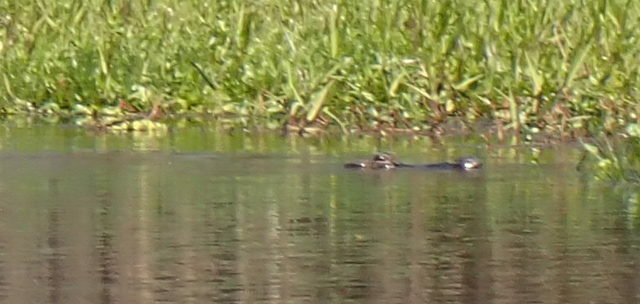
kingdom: Animalia
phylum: Chordata
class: Crocodylia
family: Alligatoridae
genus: Alligator
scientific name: Alligator mississippiensis
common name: American alligator
